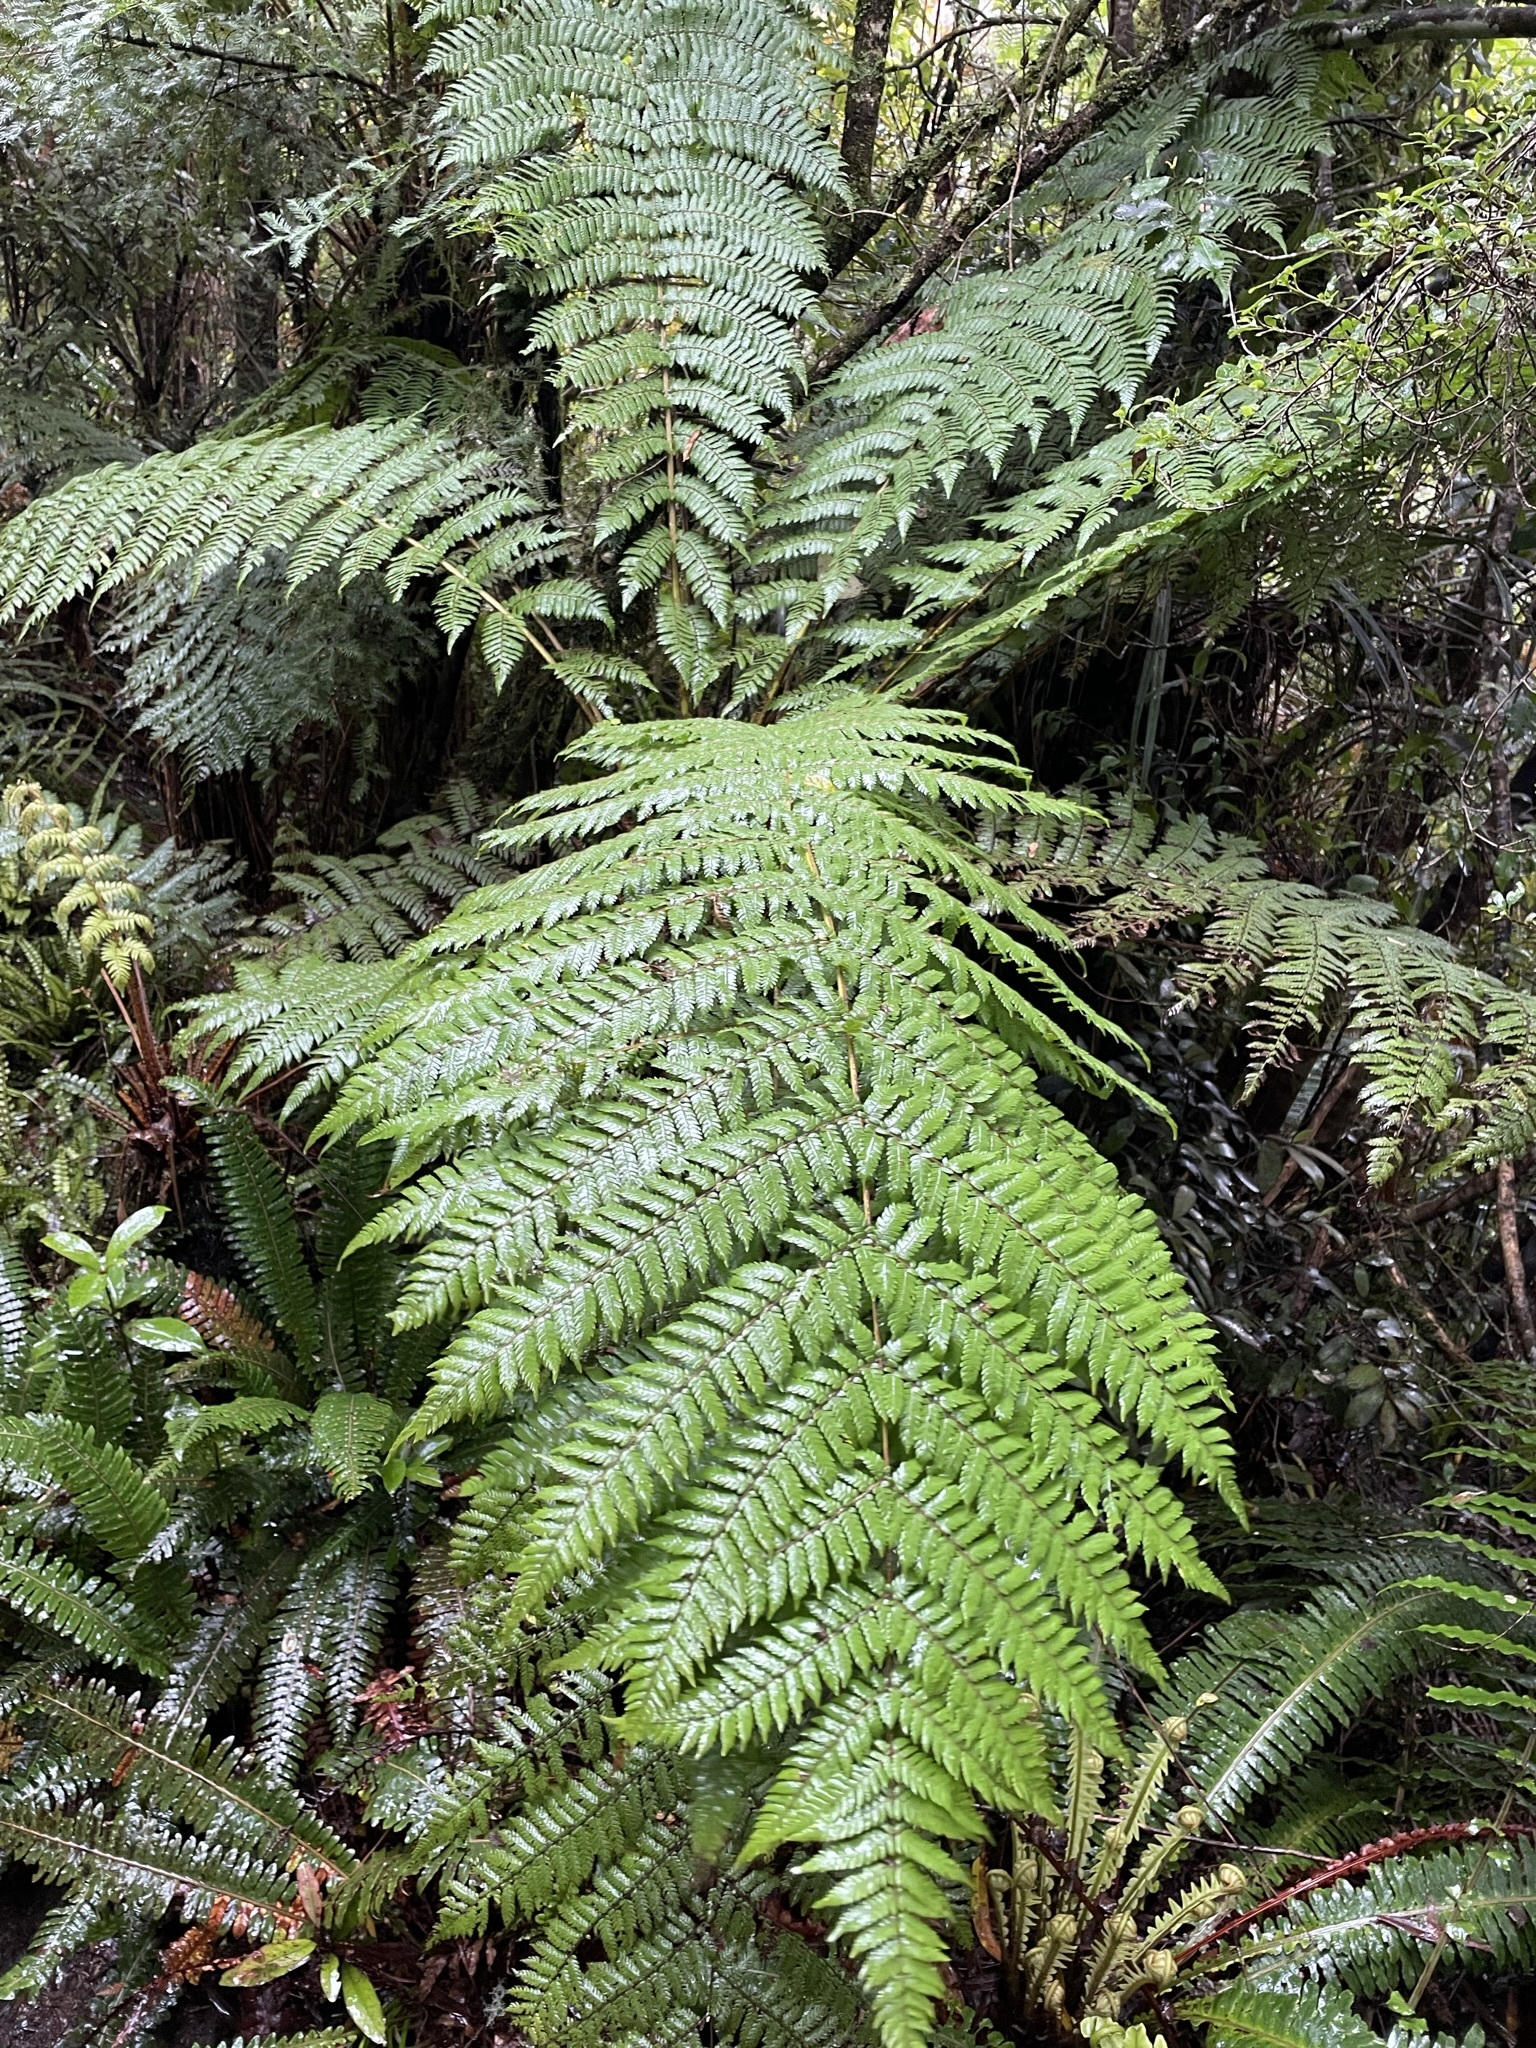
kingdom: Plantae
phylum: Tracheophyta
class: Polypodiopsida
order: Cyatheales
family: Cyatheaceae
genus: Alsophila
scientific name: Alsophila smithii
